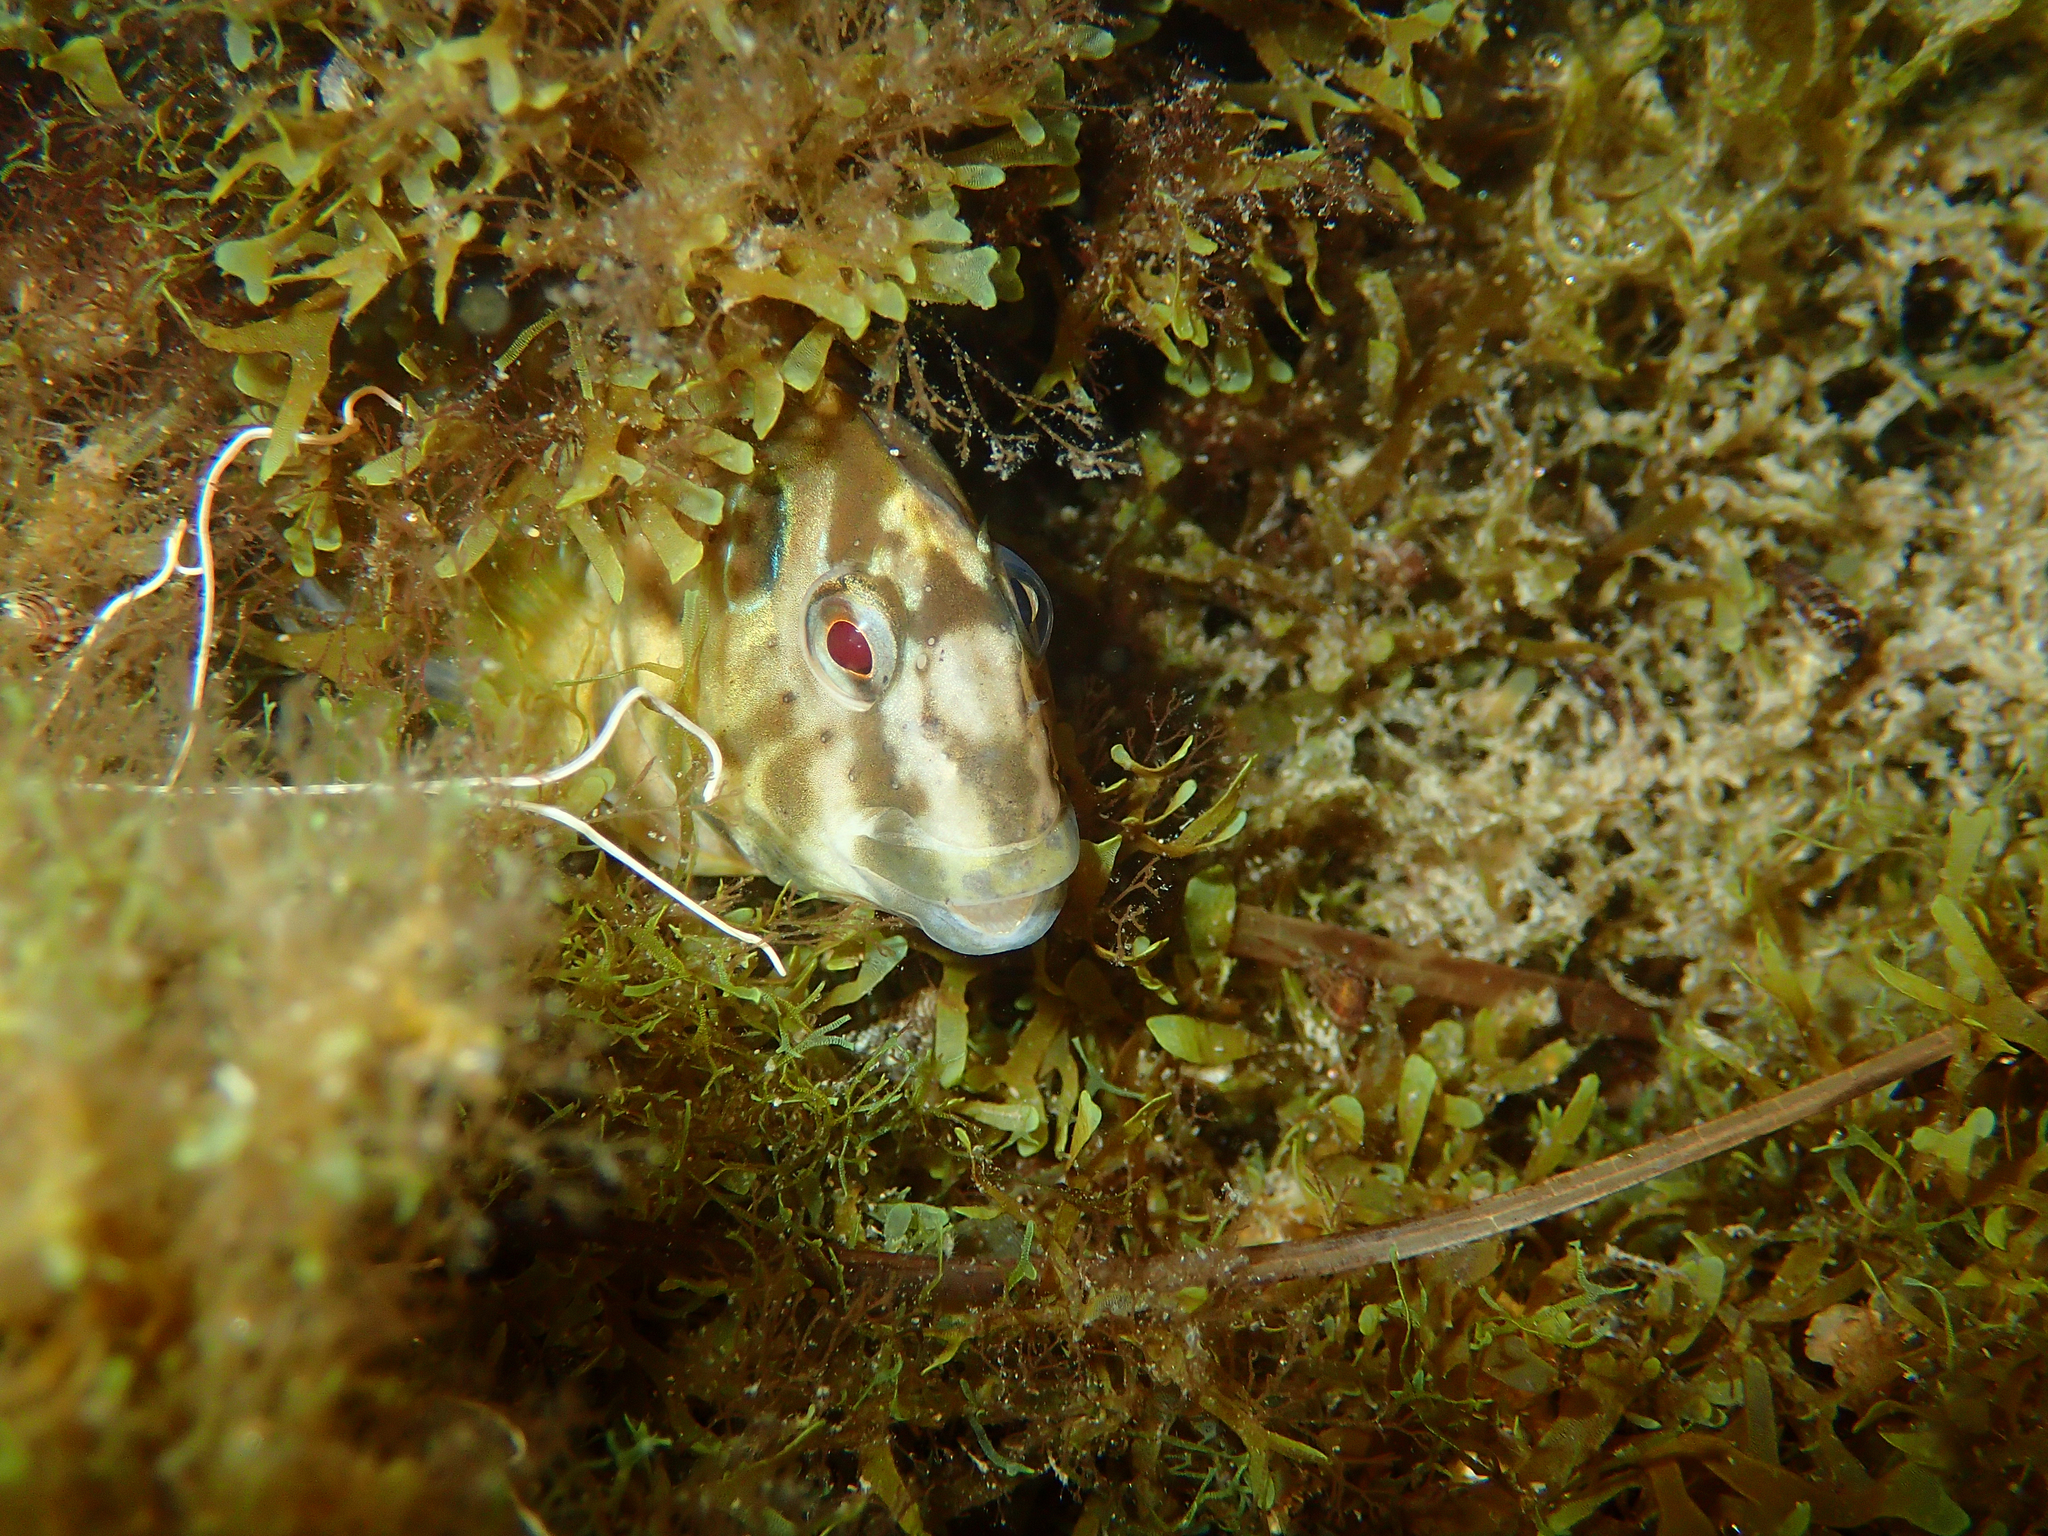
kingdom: Animalia
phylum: Chordata
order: Perciformes
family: Blenniidae
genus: Salaria
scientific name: Salaria pavo
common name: Peacock blenny
